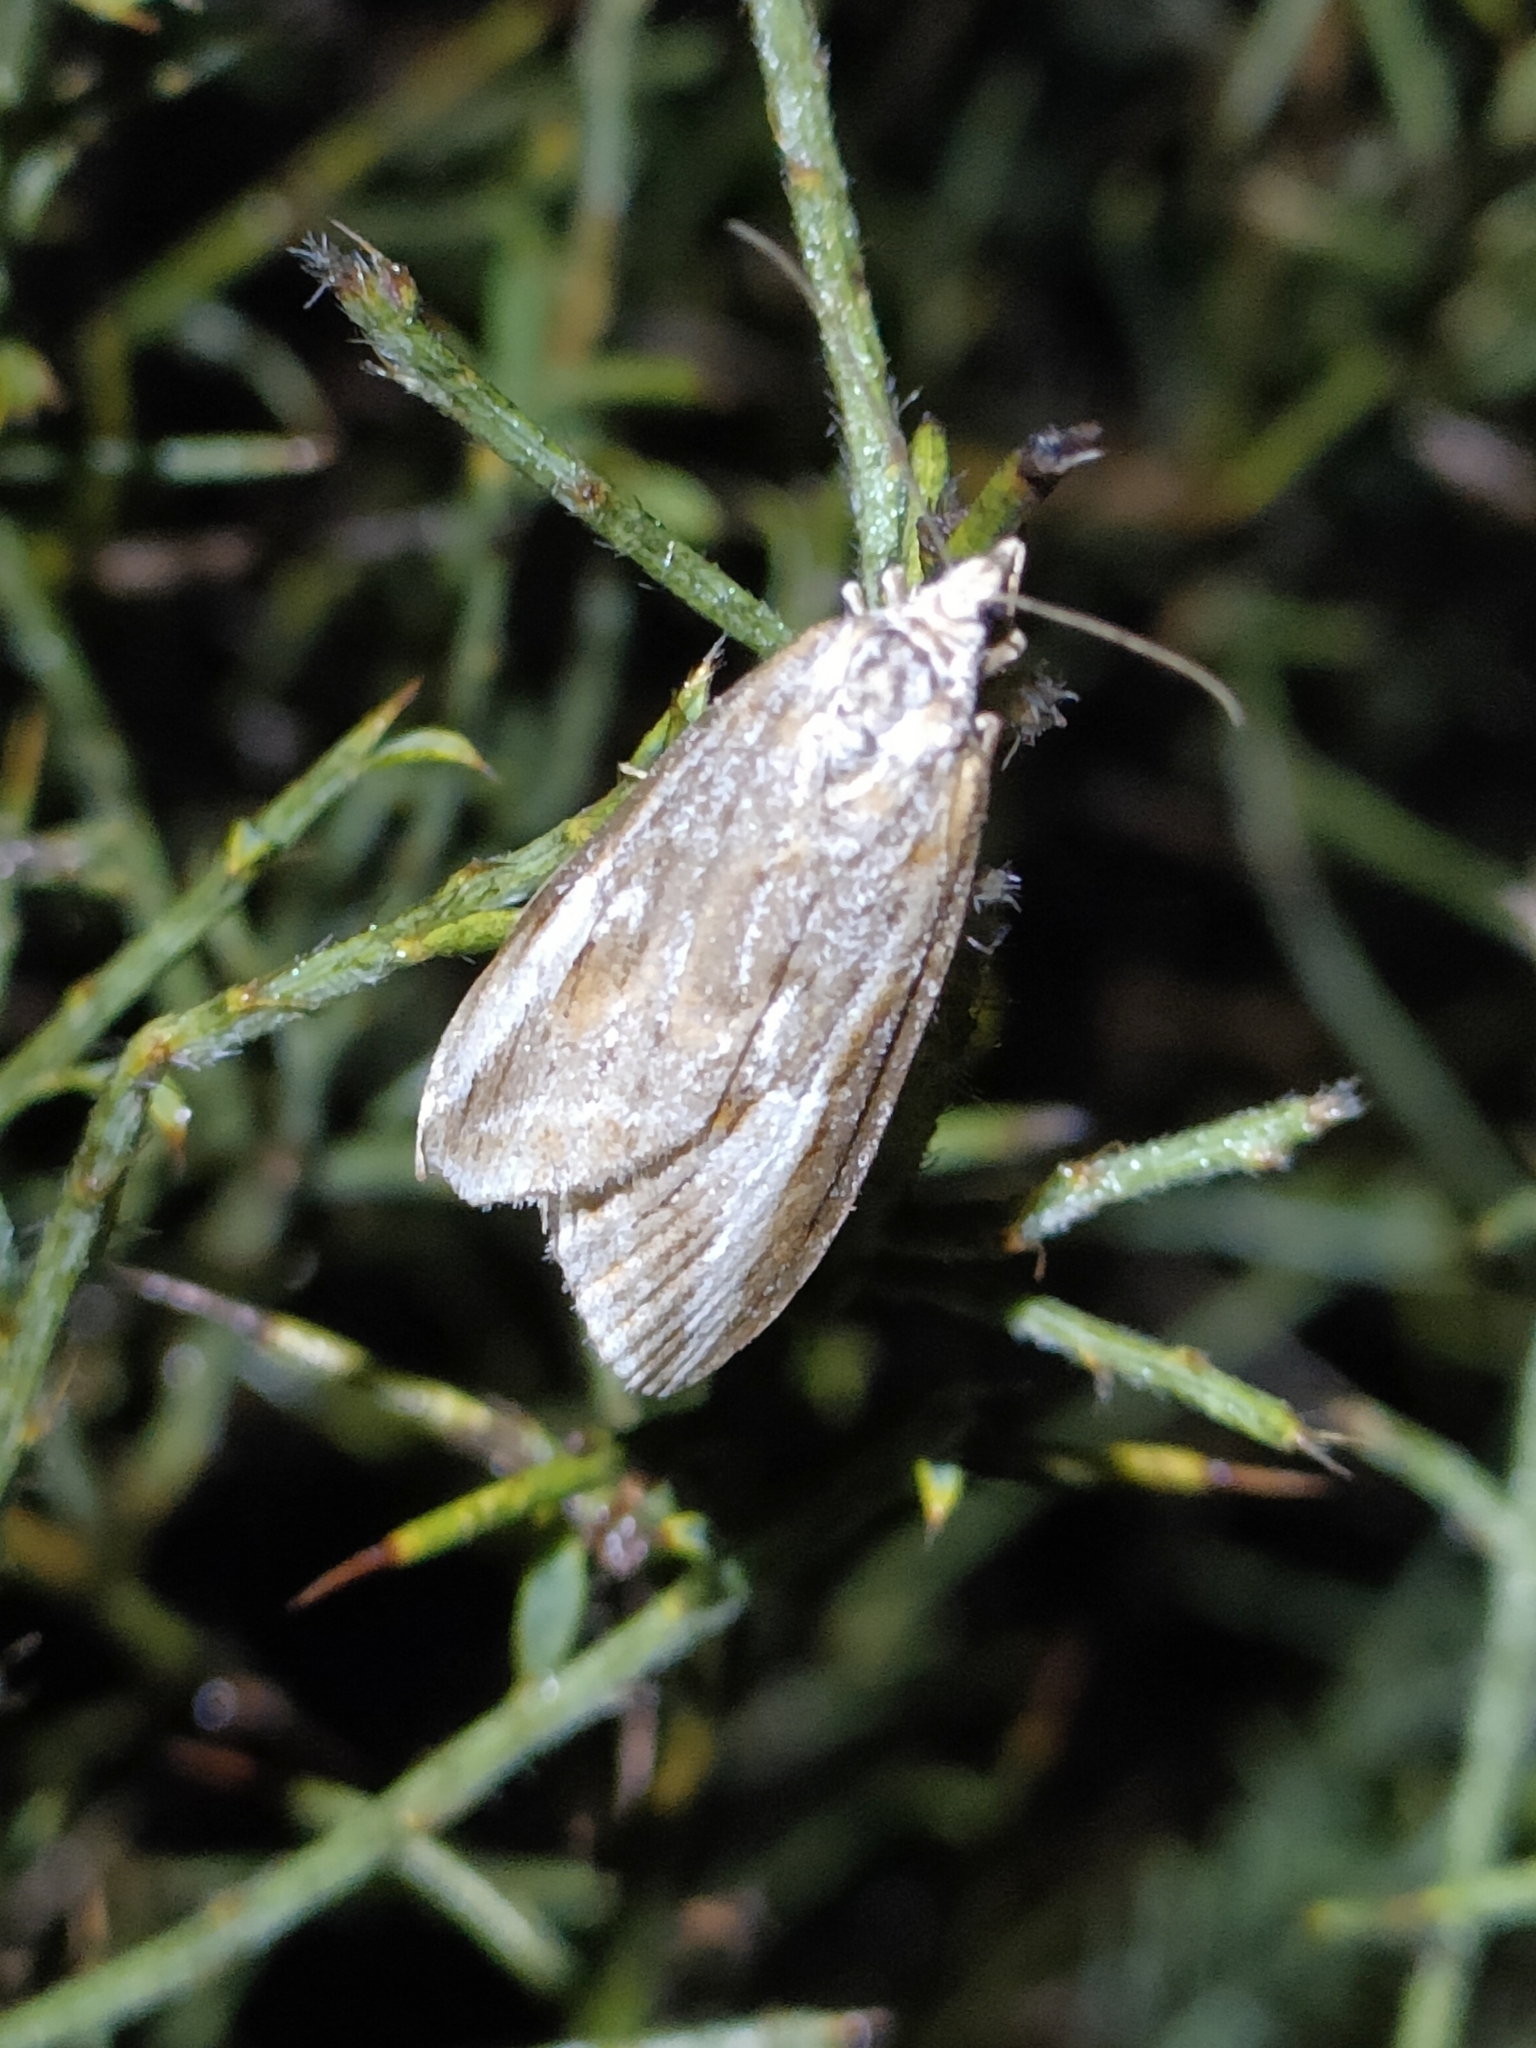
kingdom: Animalia
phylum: Arthropoda
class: Insecta
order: Lepidoptera
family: Geometridae
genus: Chesias
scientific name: Chesias legatella
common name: Streak
